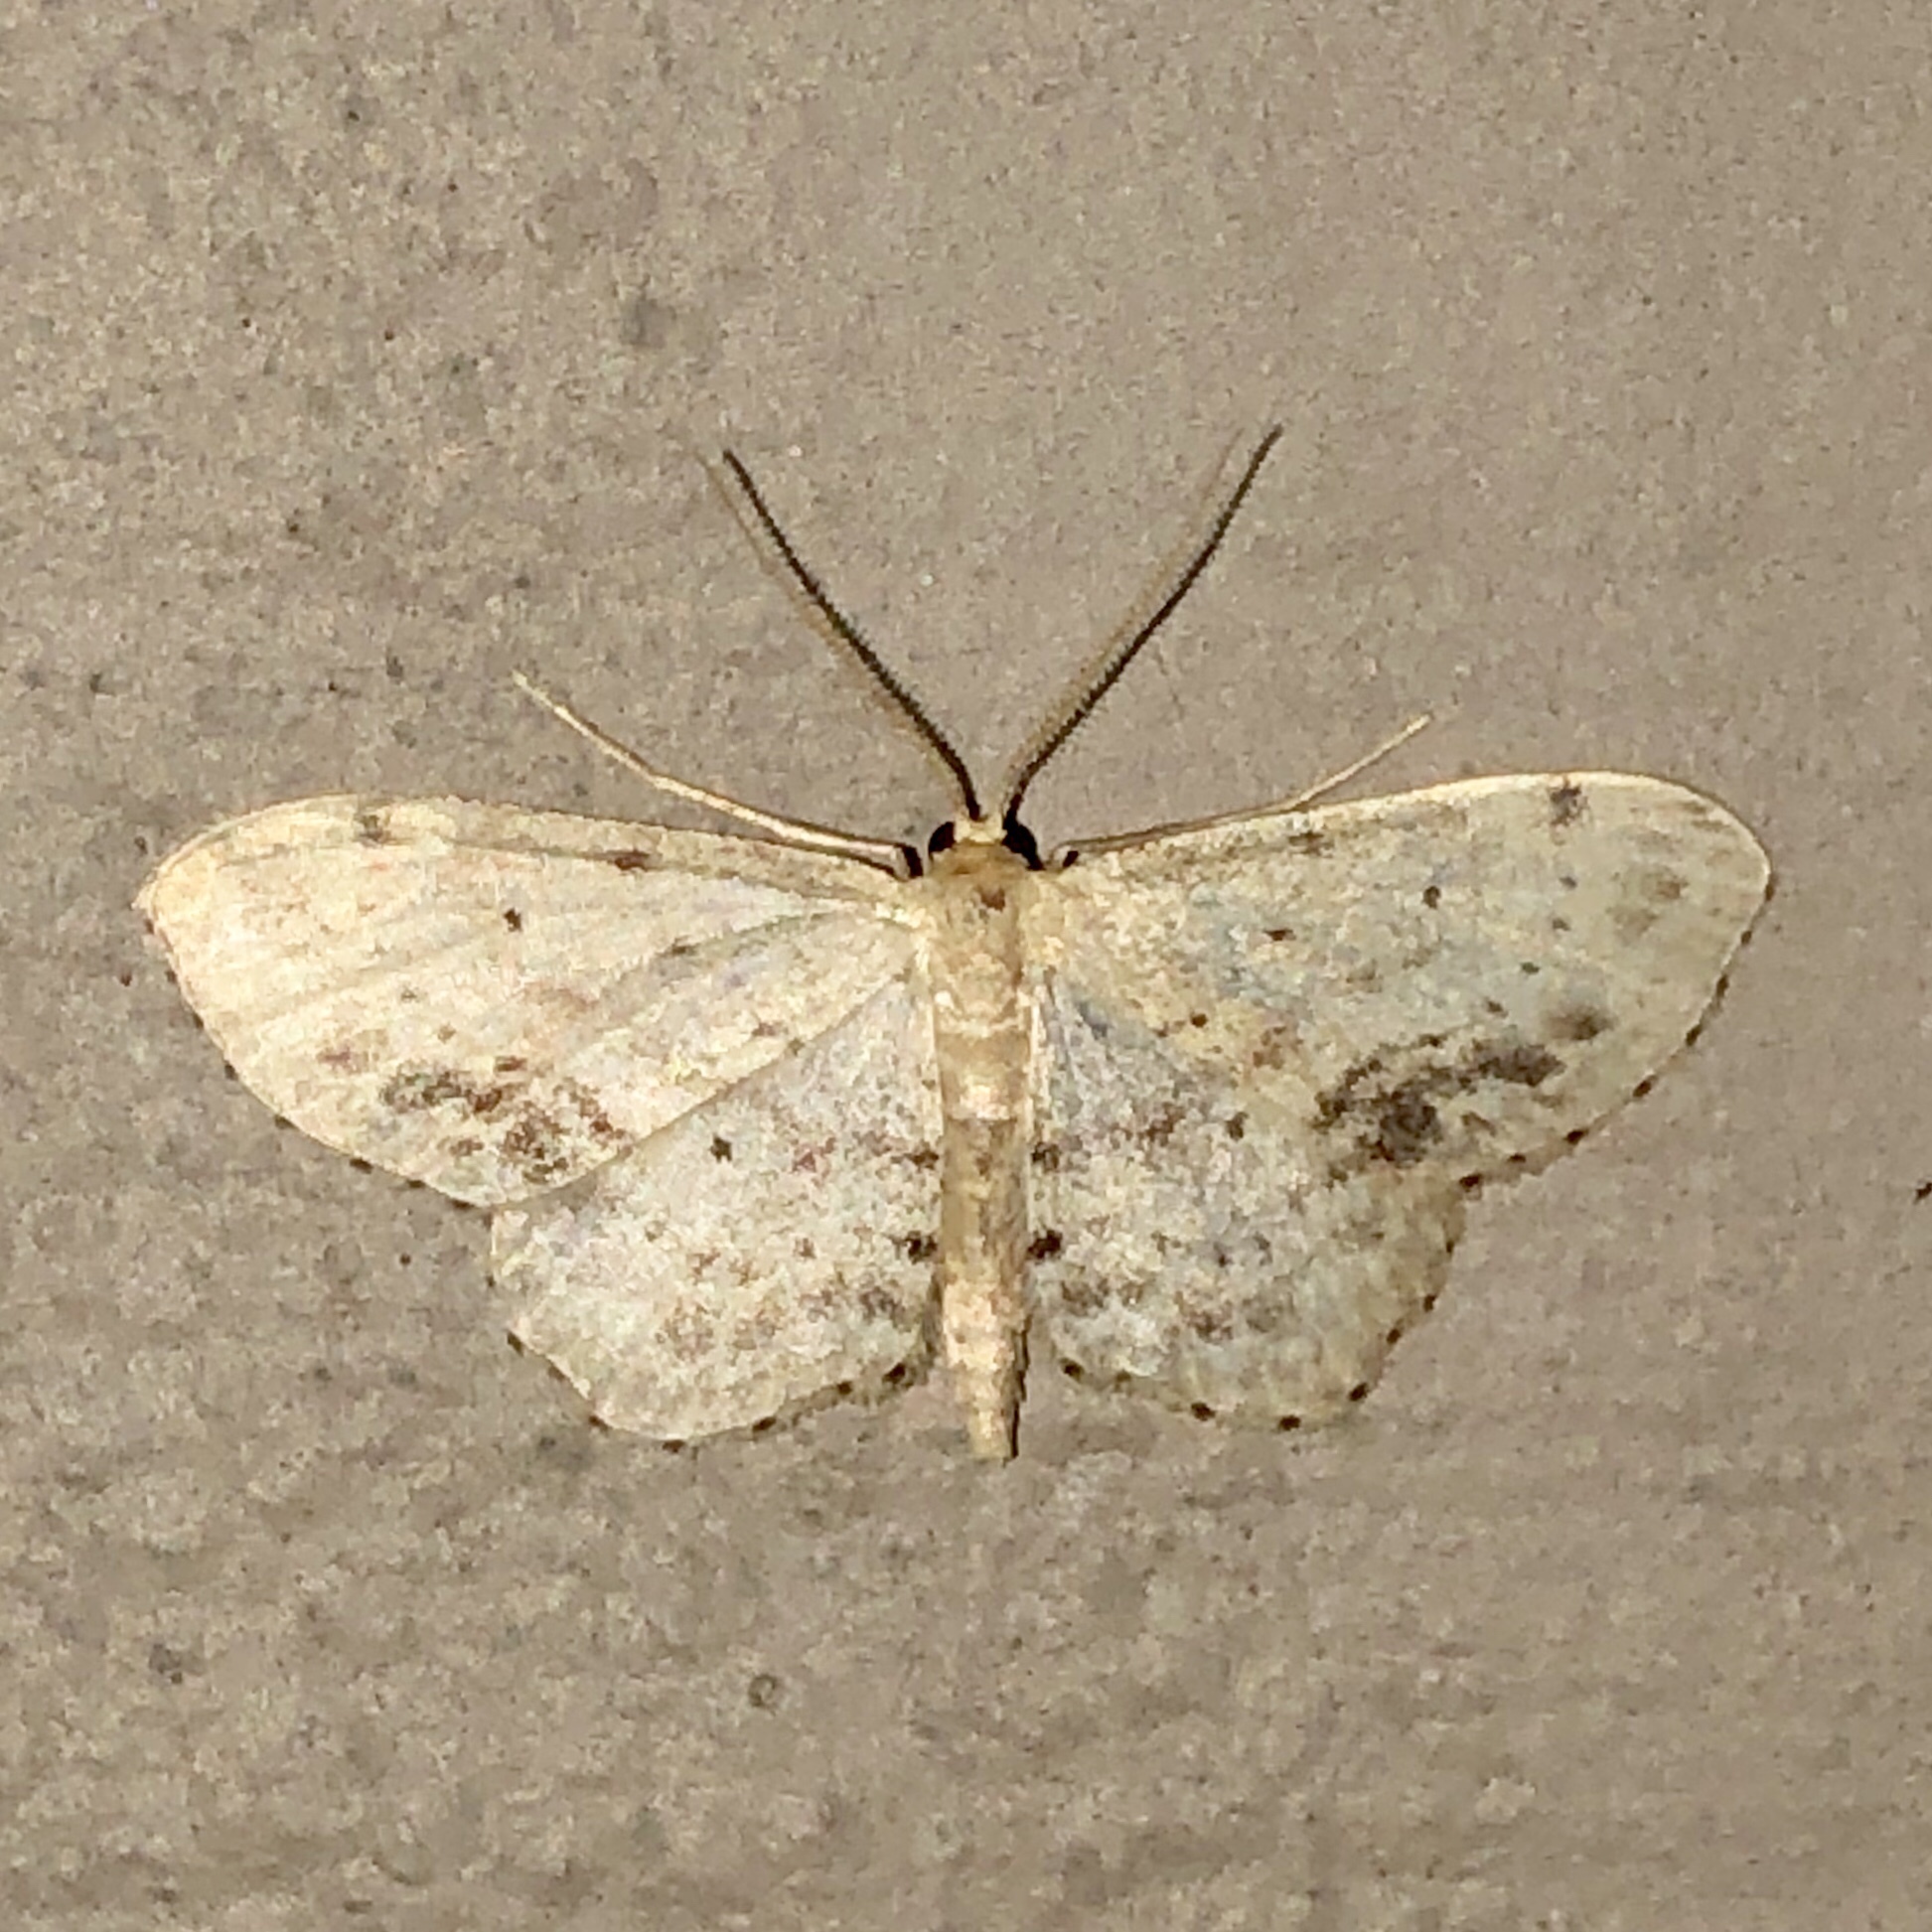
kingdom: Animalia
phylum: Arthropoda
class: Insecta
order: Lepidoptera
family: Geometridae
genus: Idaea
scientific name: Idaea dimidiata
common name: Single-dotted wave
